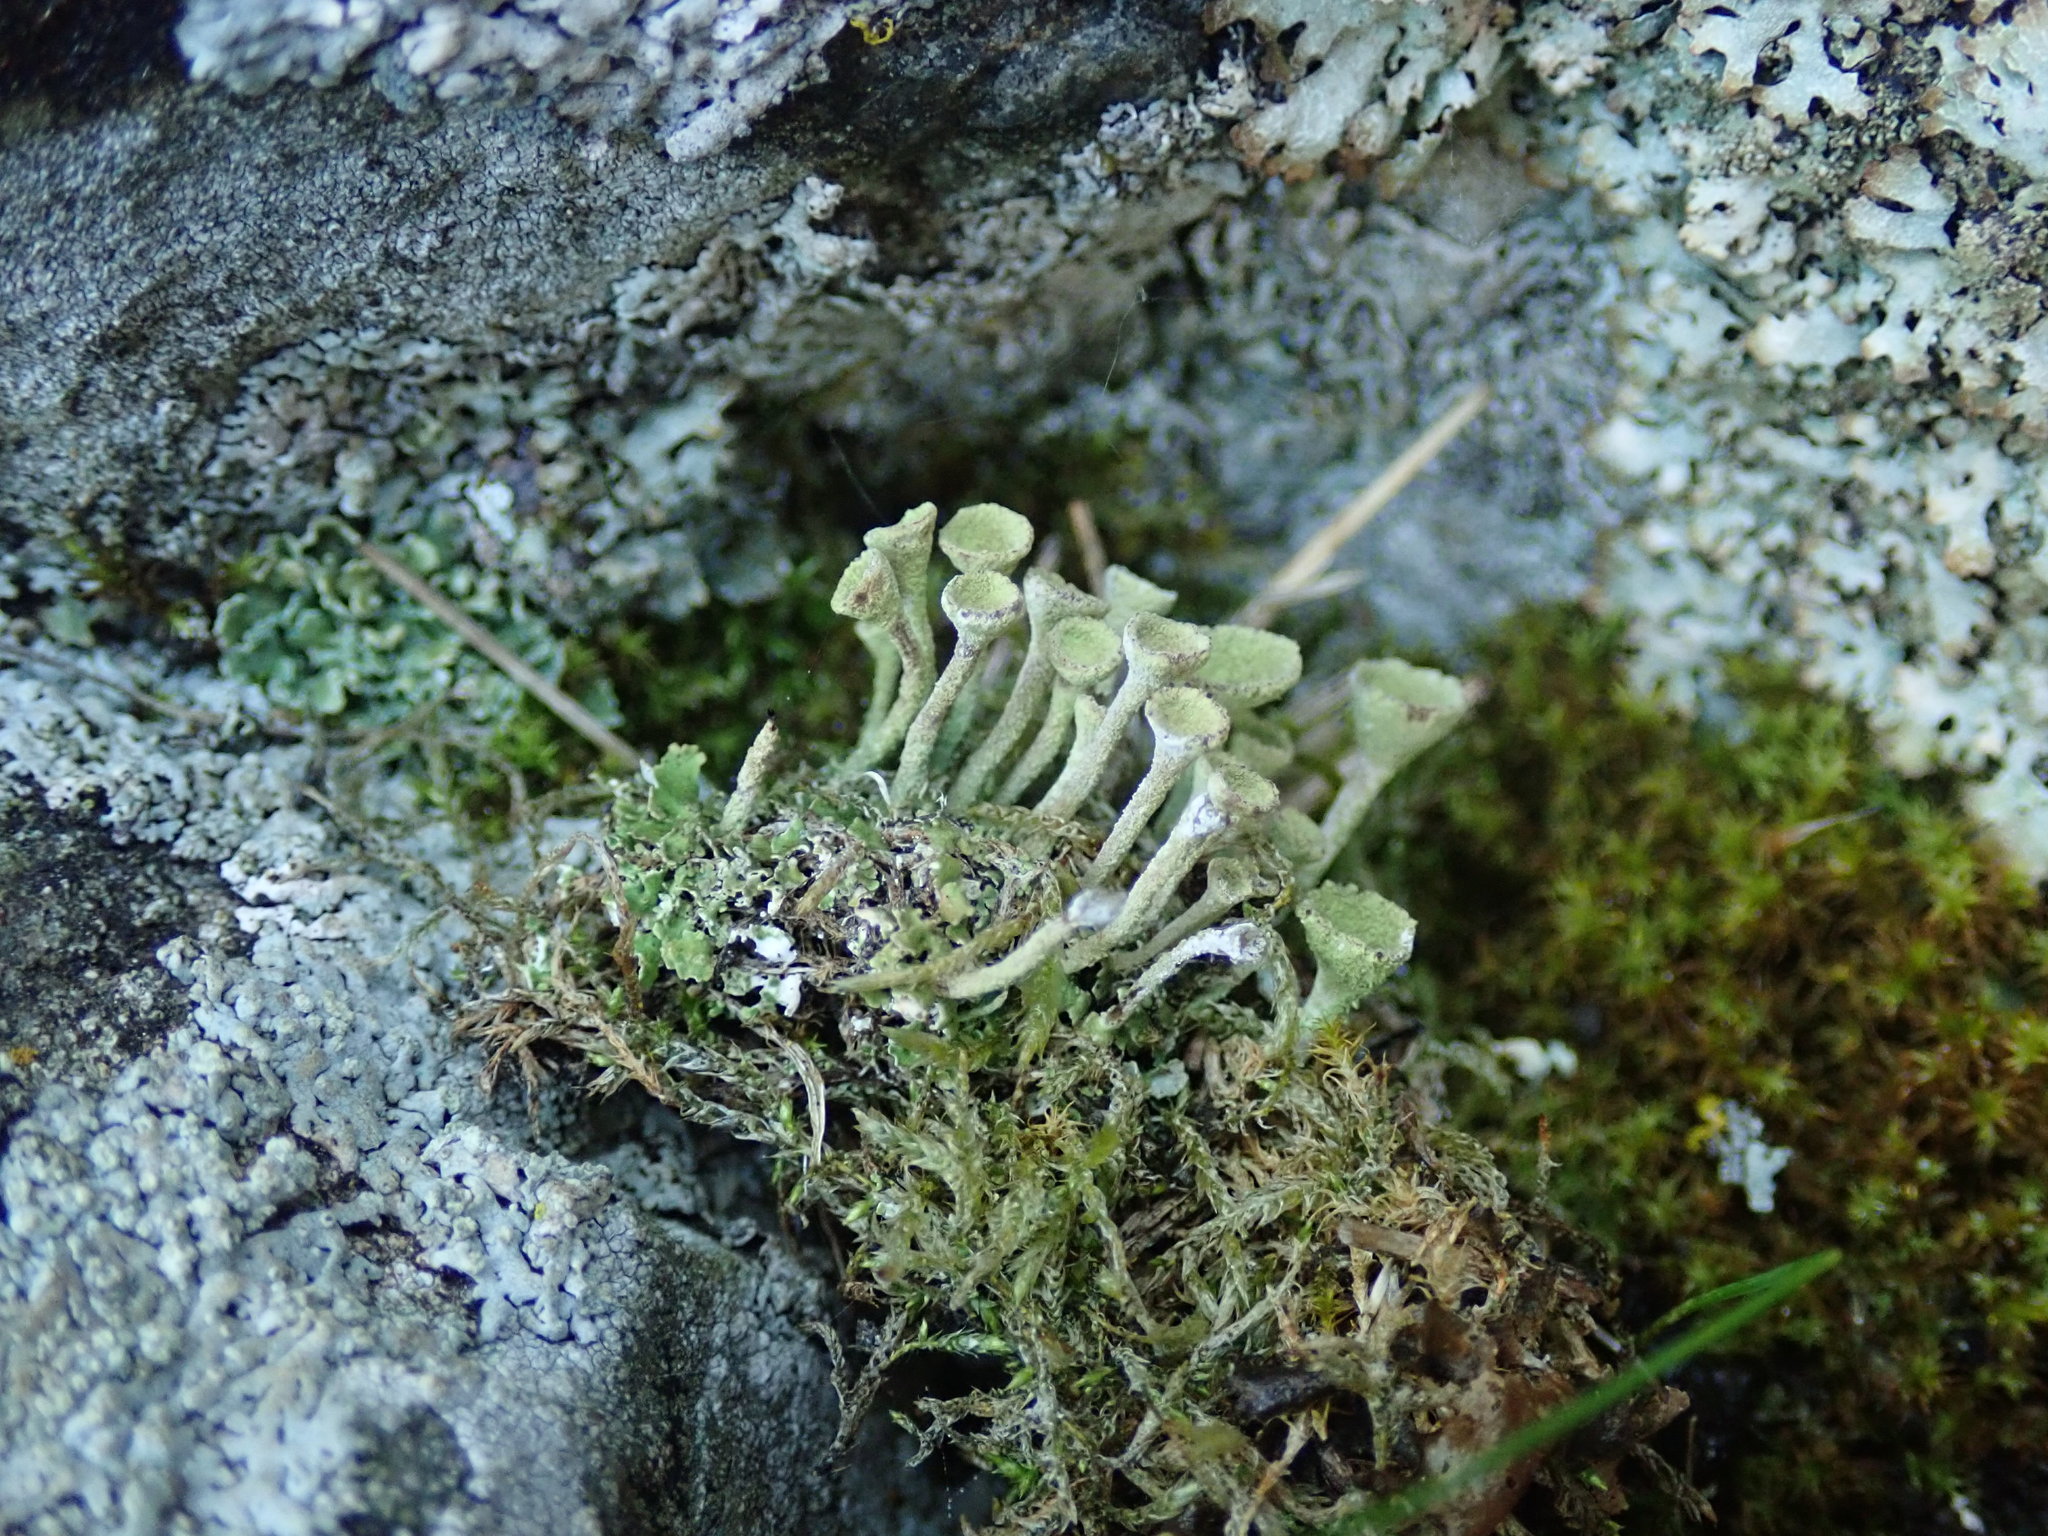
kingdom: Fungi
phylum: Ascomycota
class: Lecanoromycetes
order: Lecanorales
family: Cladoniaceae
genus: Cladonia
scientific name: Cladonia fimbriata
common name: Powdered trumpet lichen
